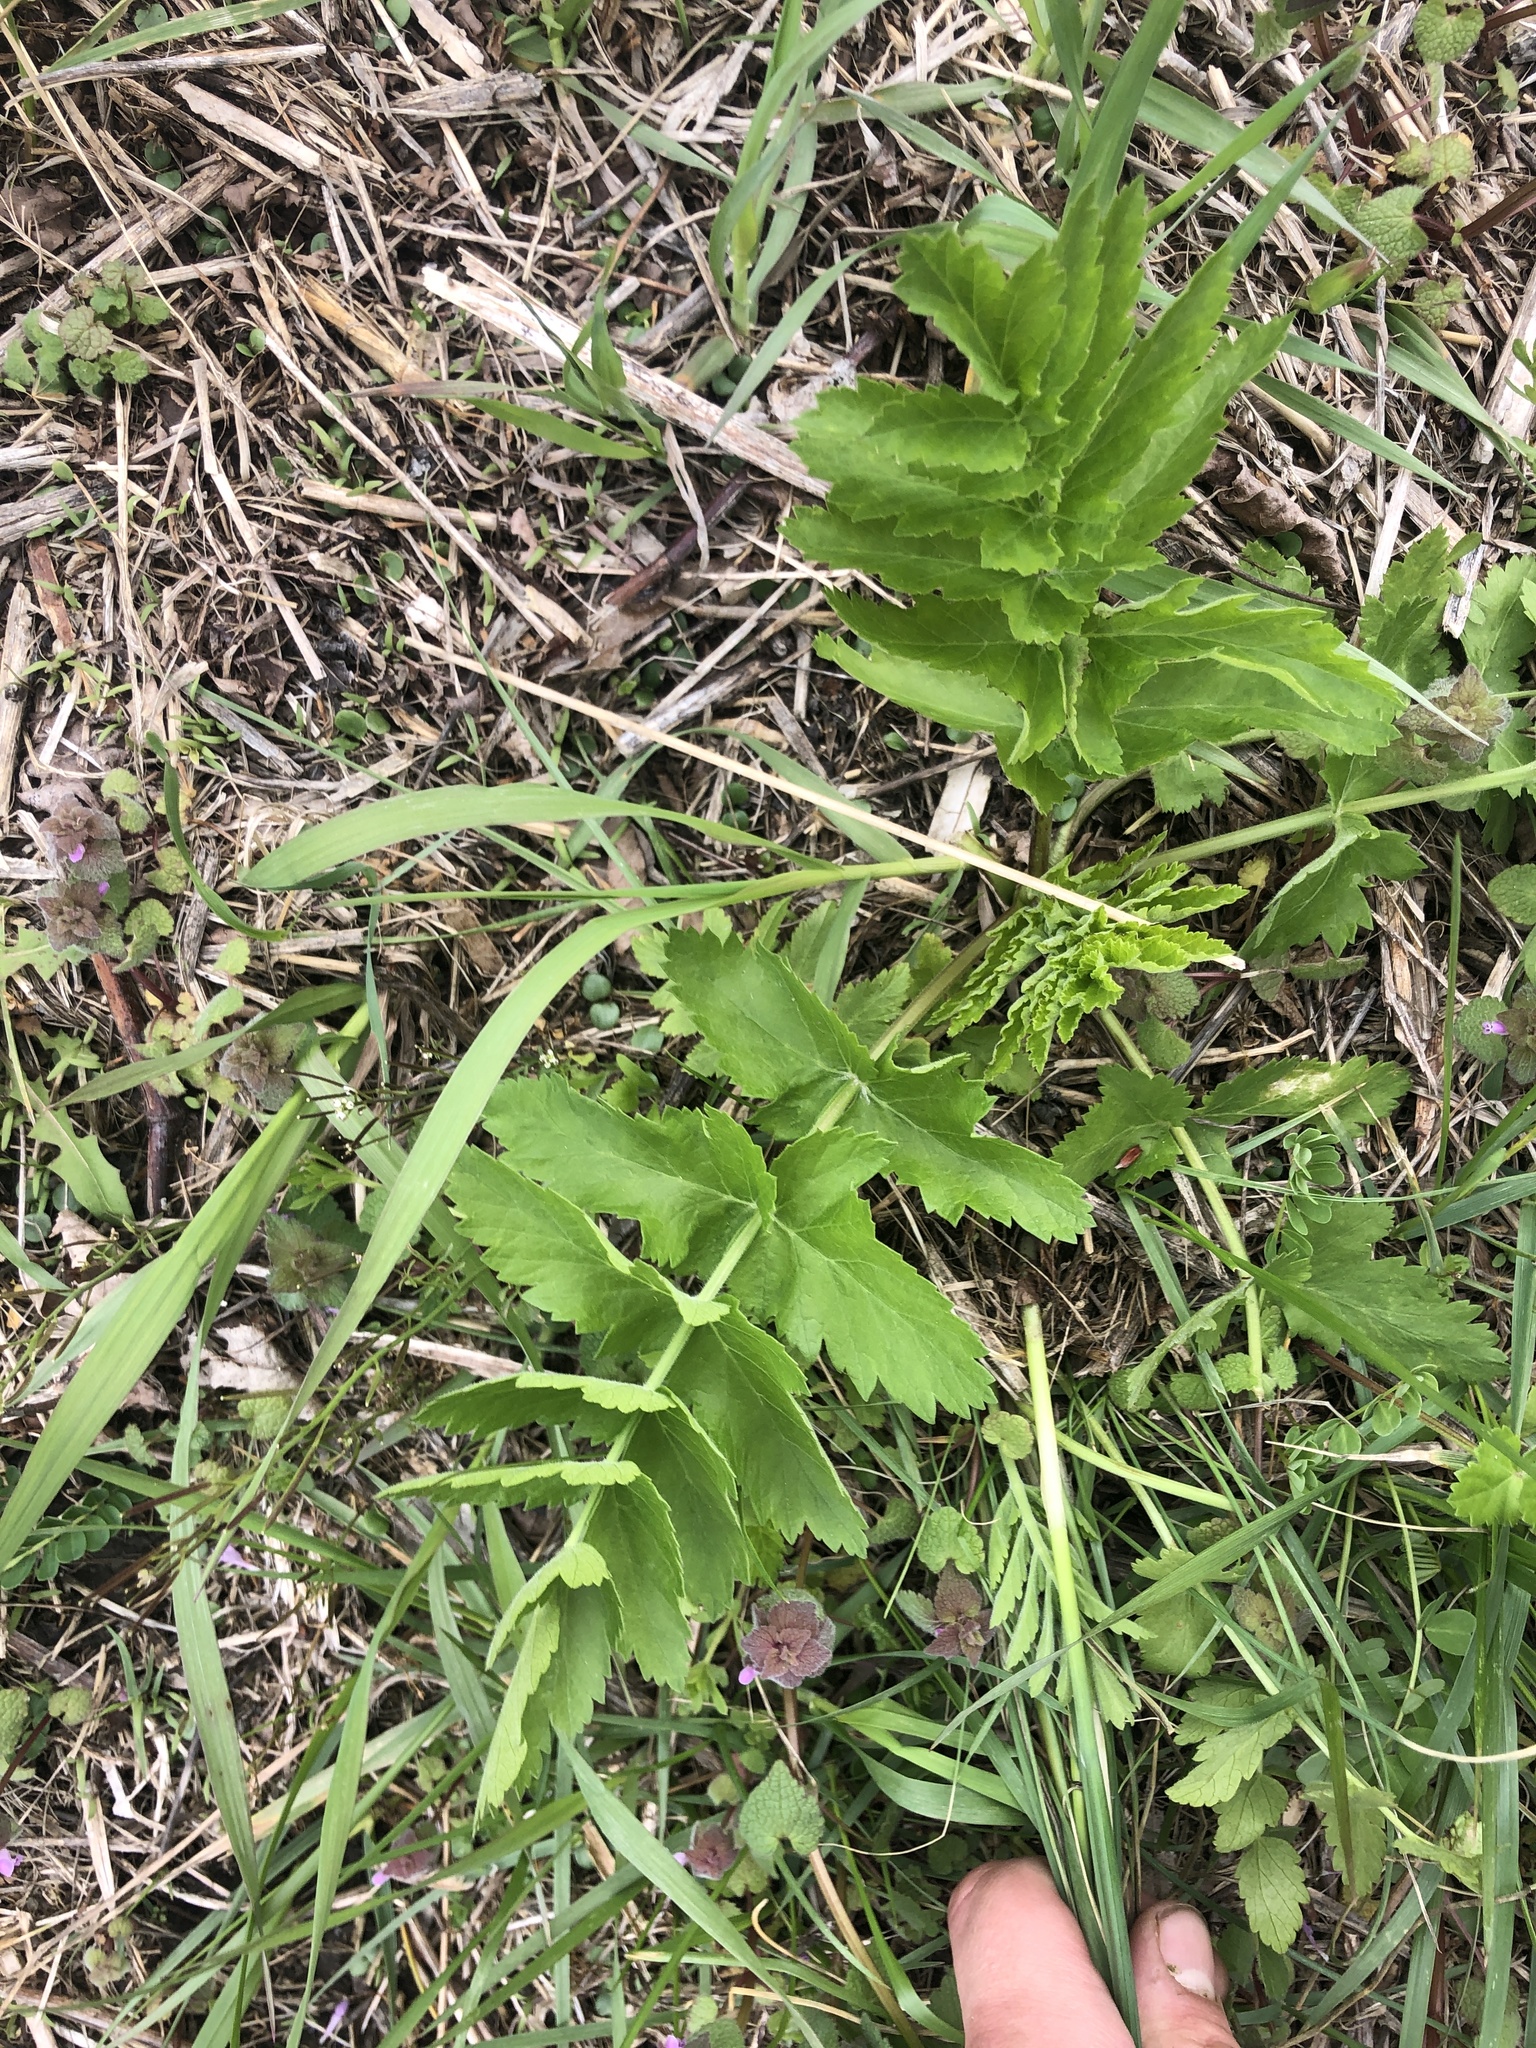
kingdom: Plantae
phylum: Tracheophyta
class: Magnoliopsida
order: Apiales
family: Apiaceae
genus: Pastinaca
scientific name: Pastinaca sativa
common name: Wild parsnip
